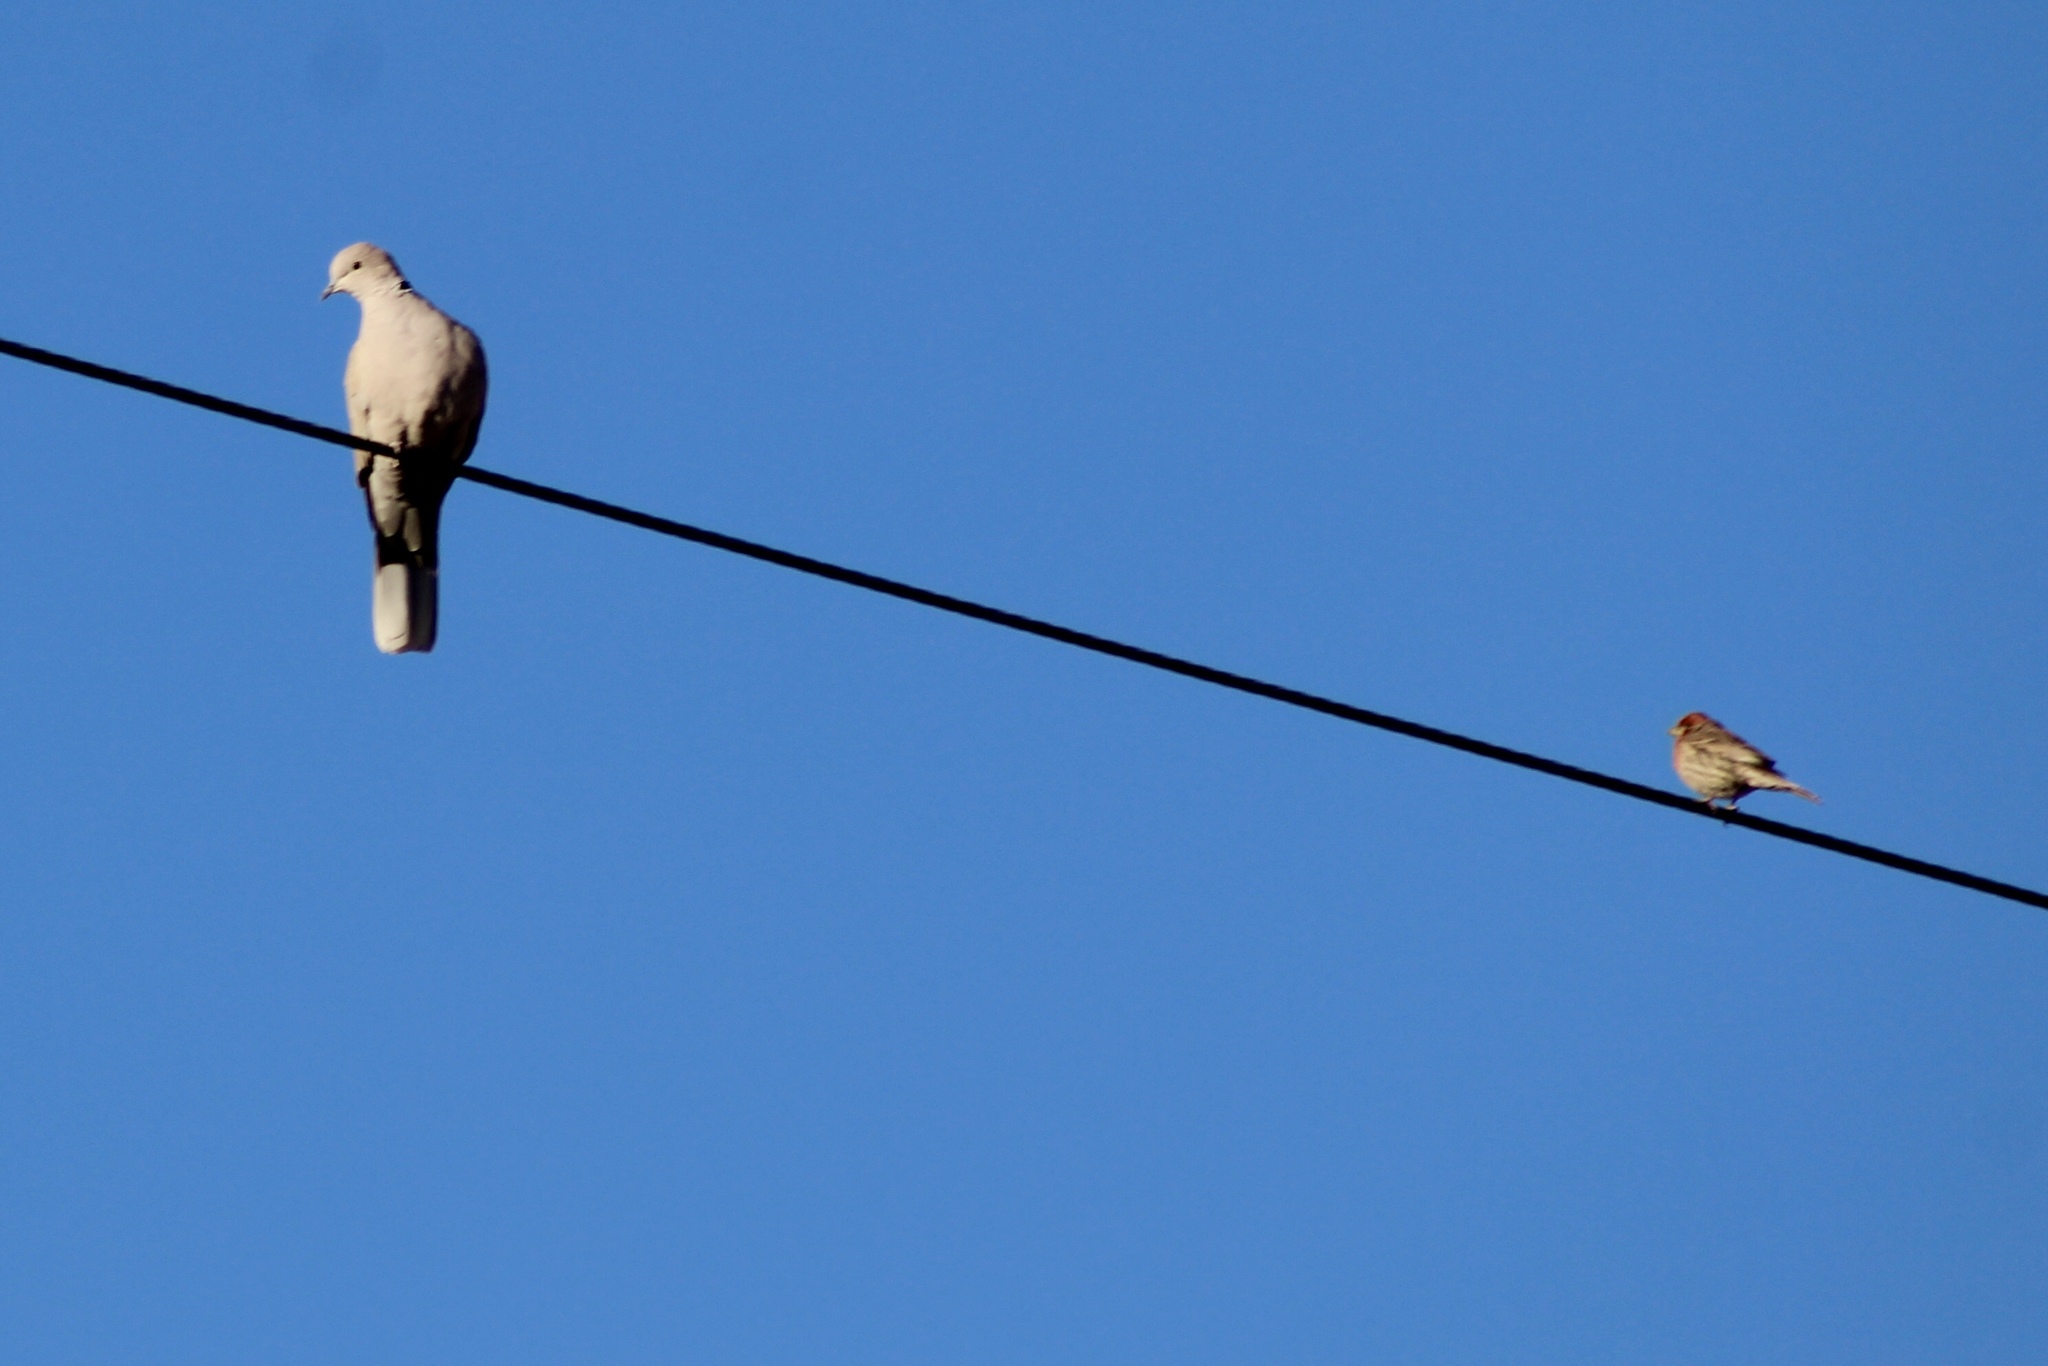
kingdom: Animalia
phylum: Chordata
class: Aves
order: Columbiformes
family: Columbidae
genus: Streptopelia
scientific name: Streptopelia decaocto
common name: Eurasian collared dove
